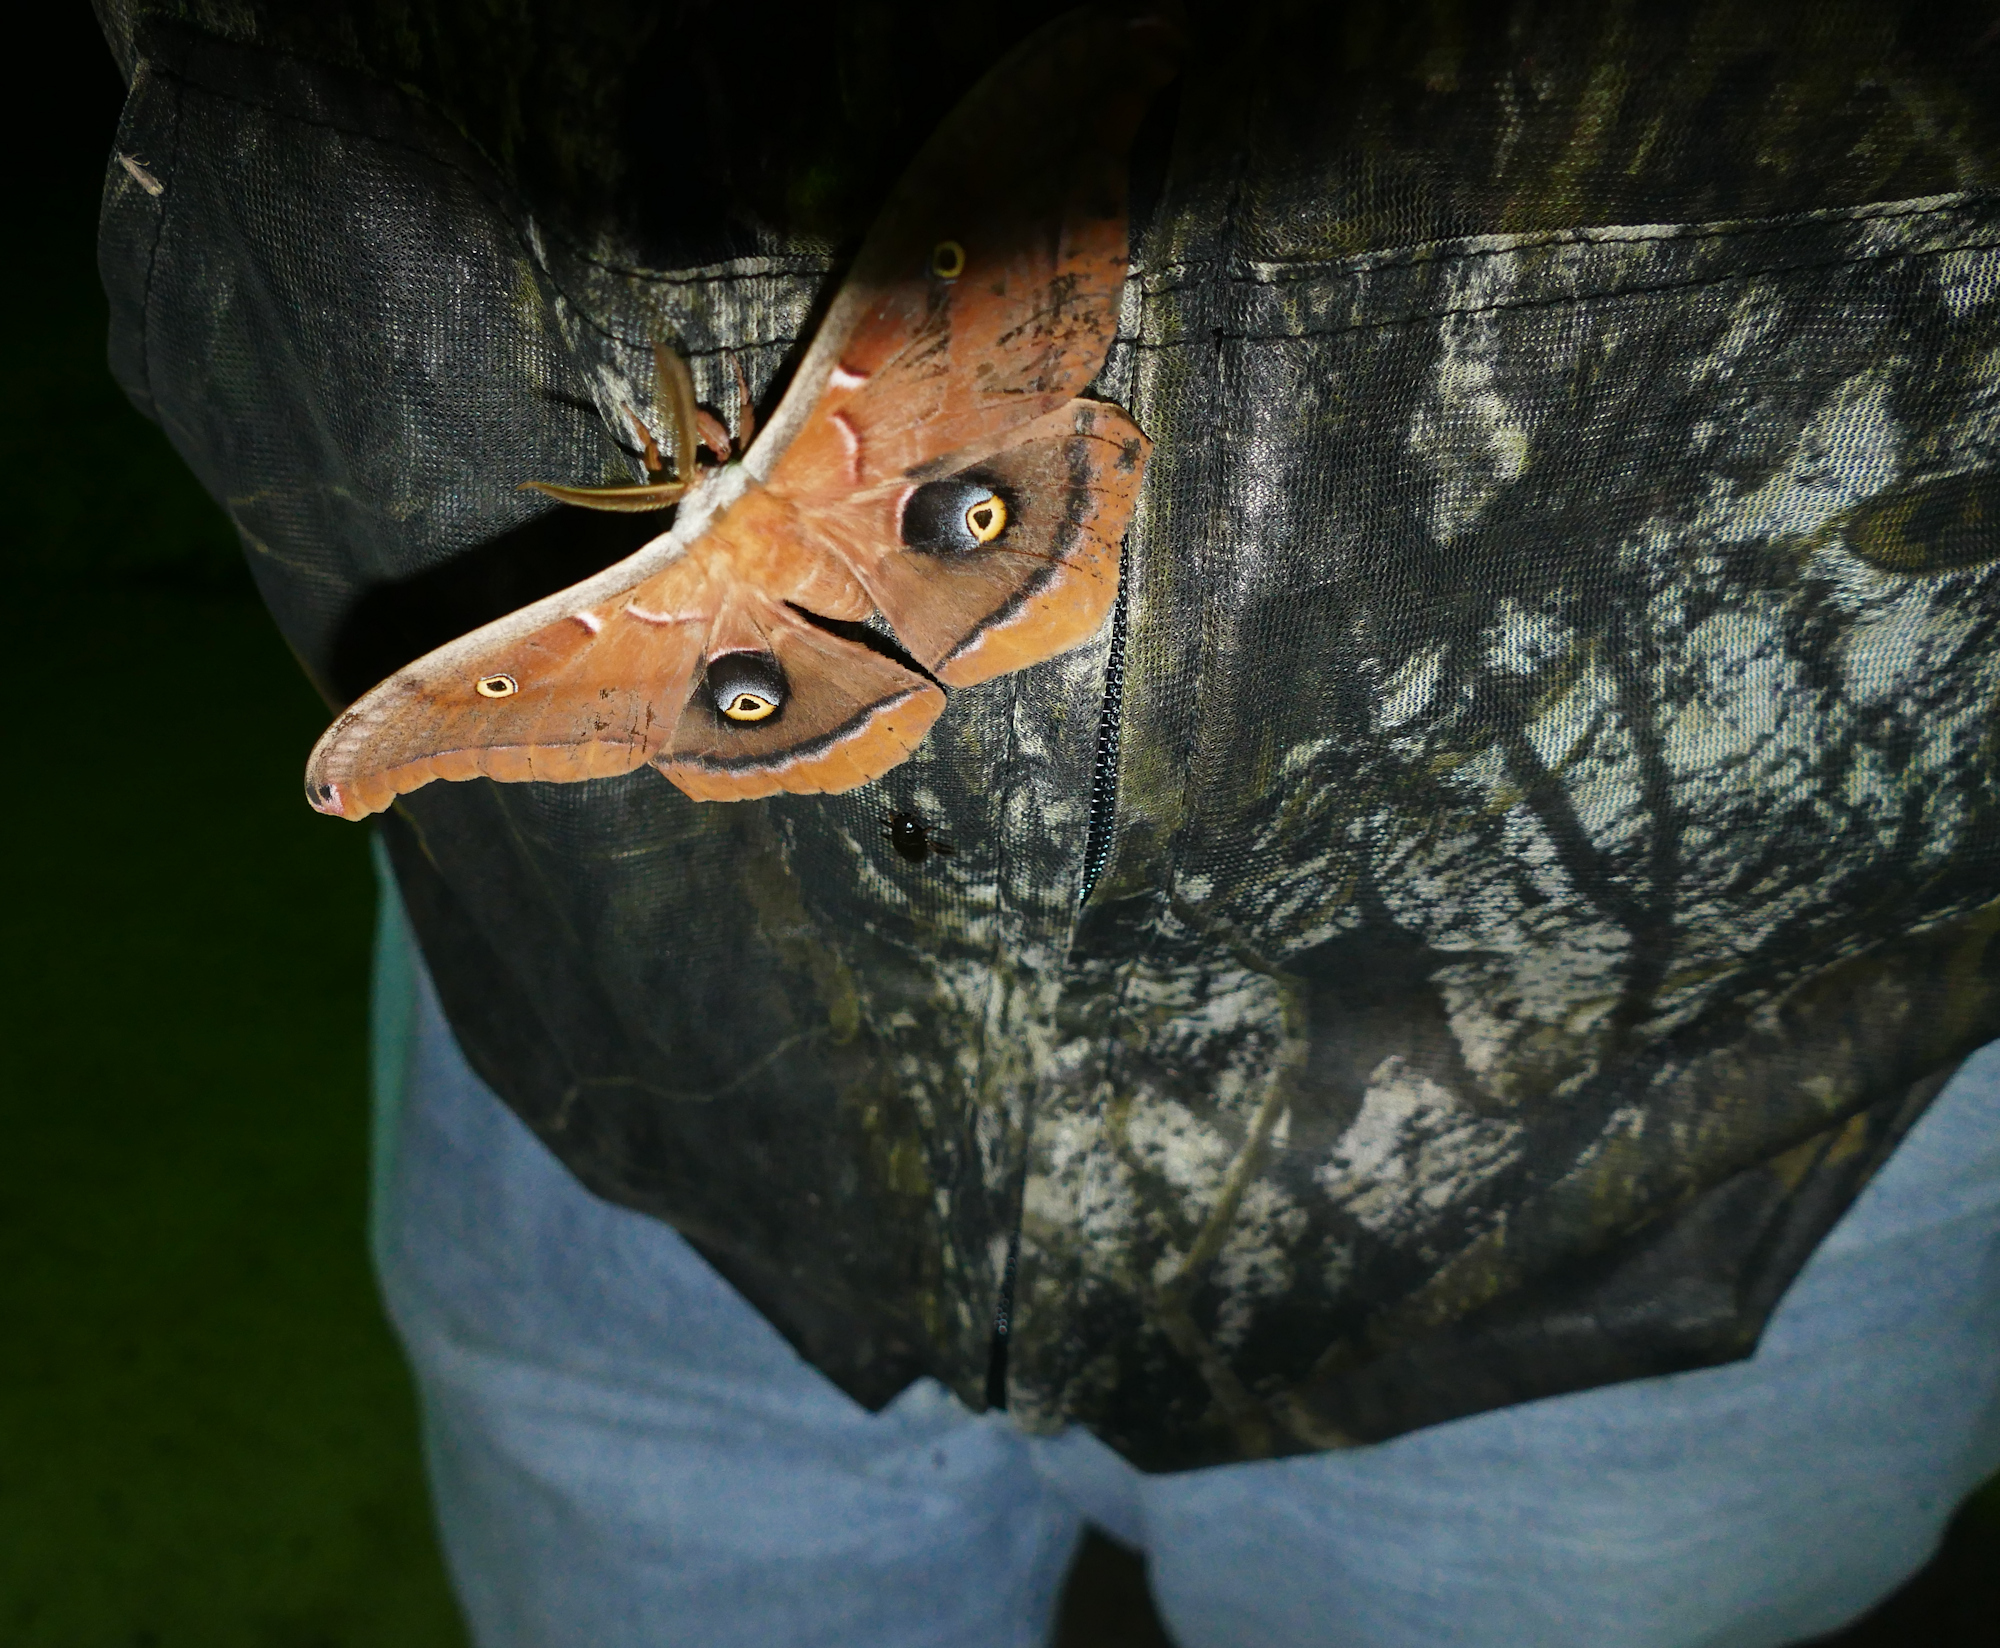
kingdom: Animalia
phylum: Arthropoda
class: Insecta
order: Lepidoptera
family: Saturniidae
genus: Antheraea
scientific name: Antheraea polyphemus
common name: Polyphemus moth
